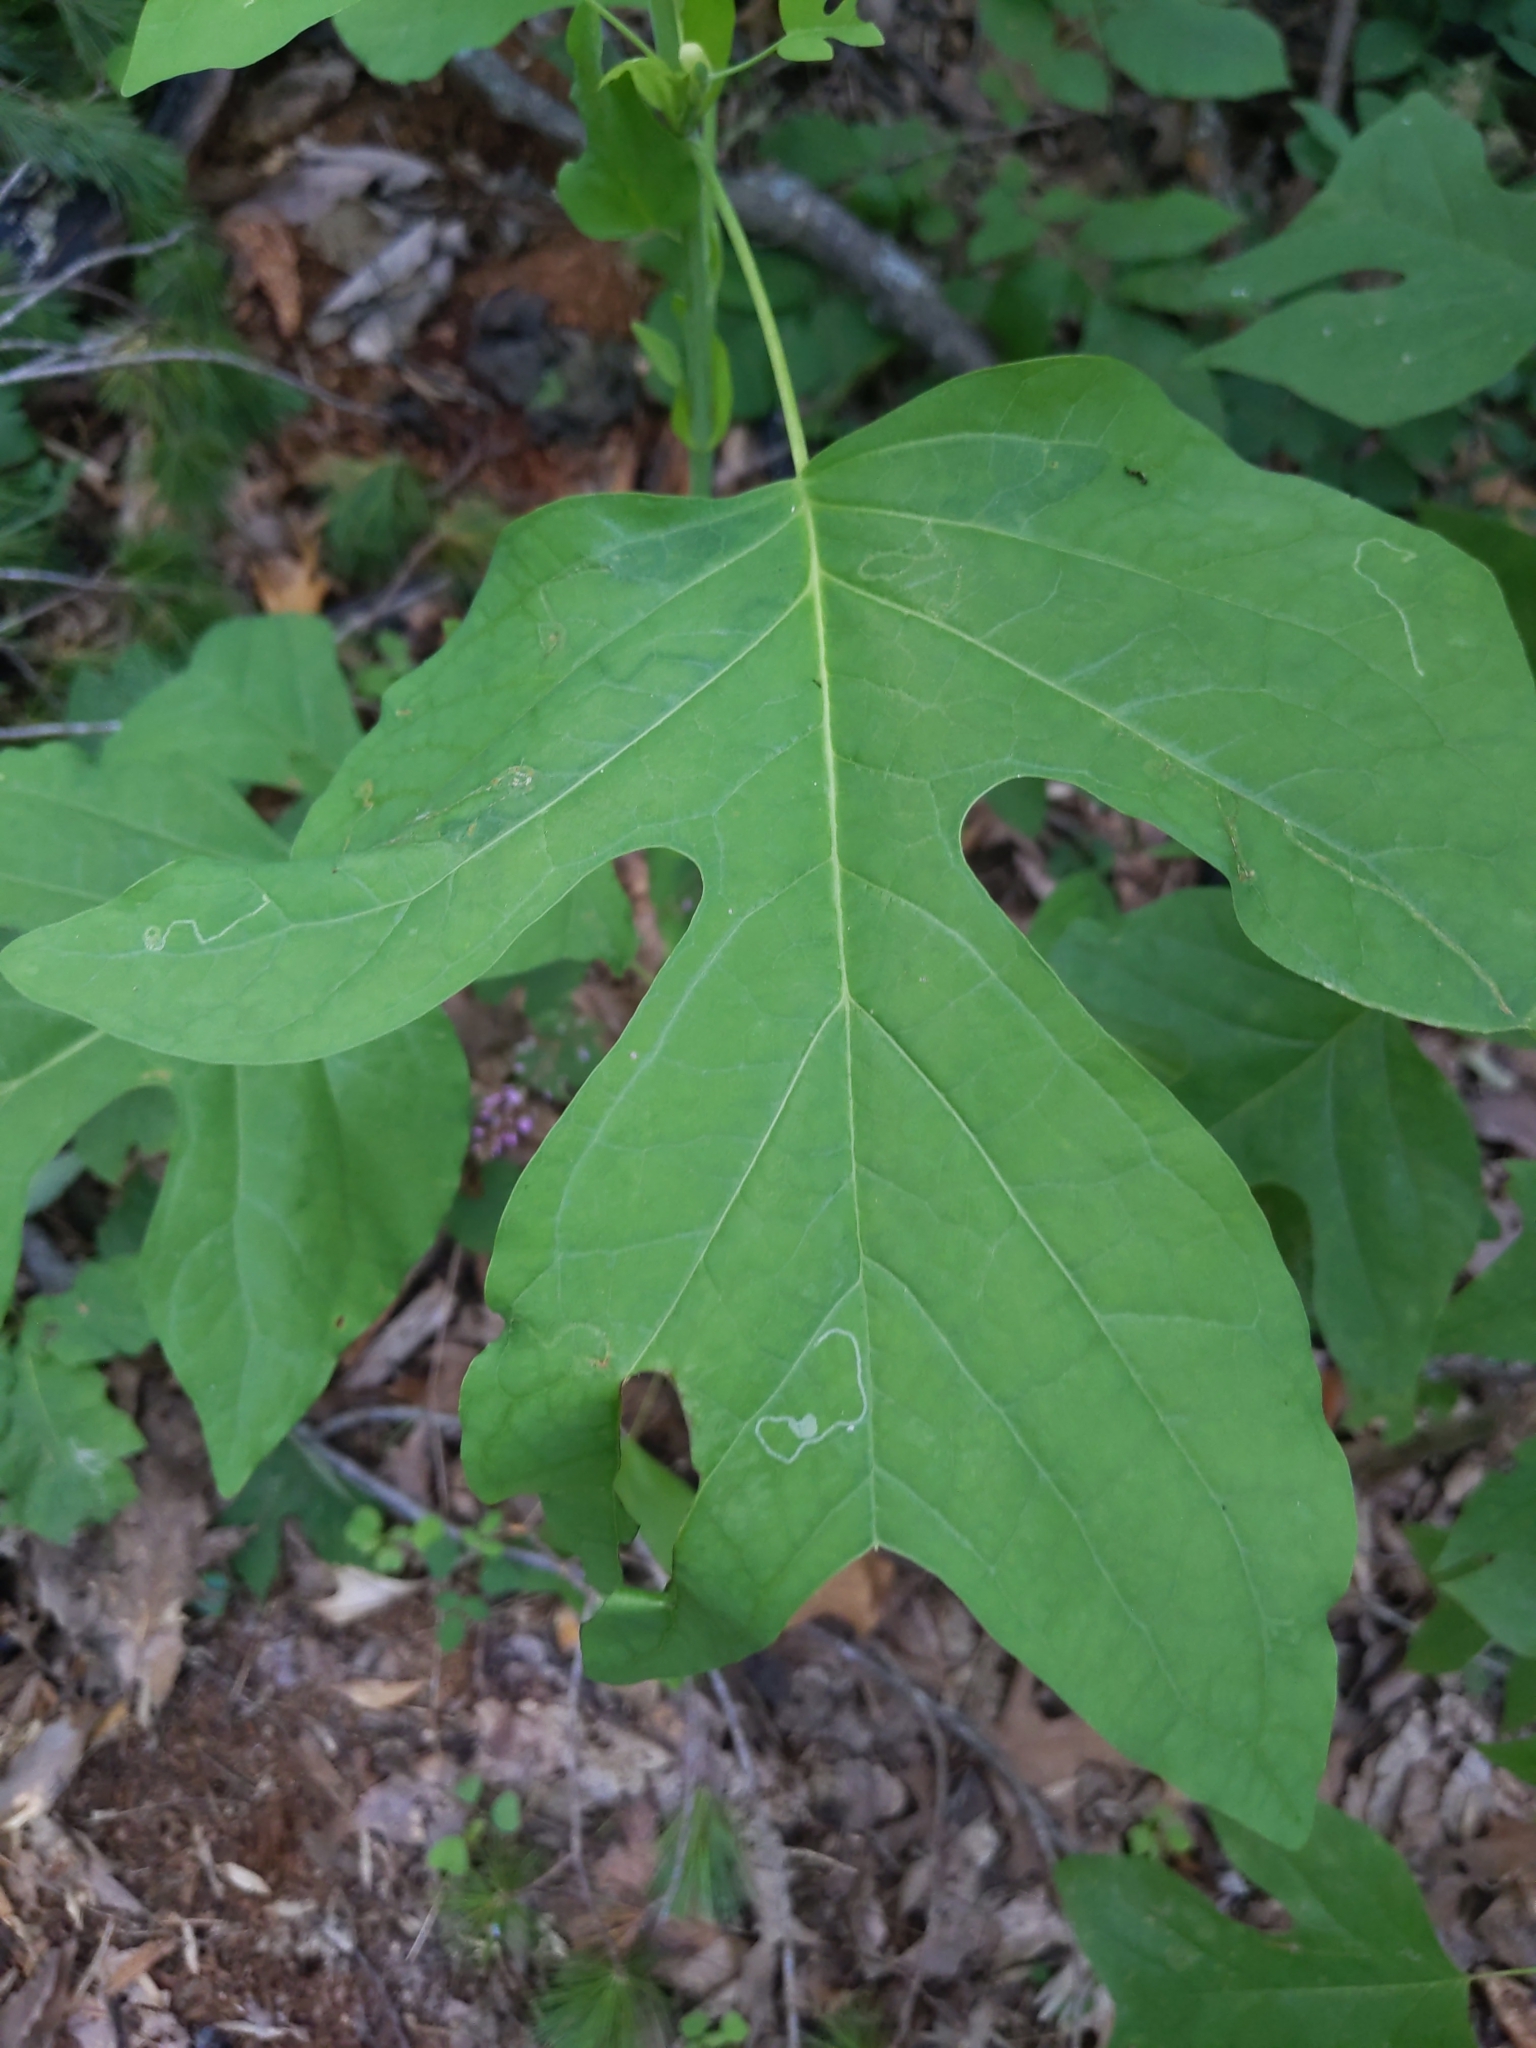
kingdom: Plantae
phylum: Tracheophyta
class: Magnoliopsida
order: Magnoliales
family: Magnoliaceae
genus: Liriodendron
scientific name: Liriodendron tulipifera
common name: Tulip tree
